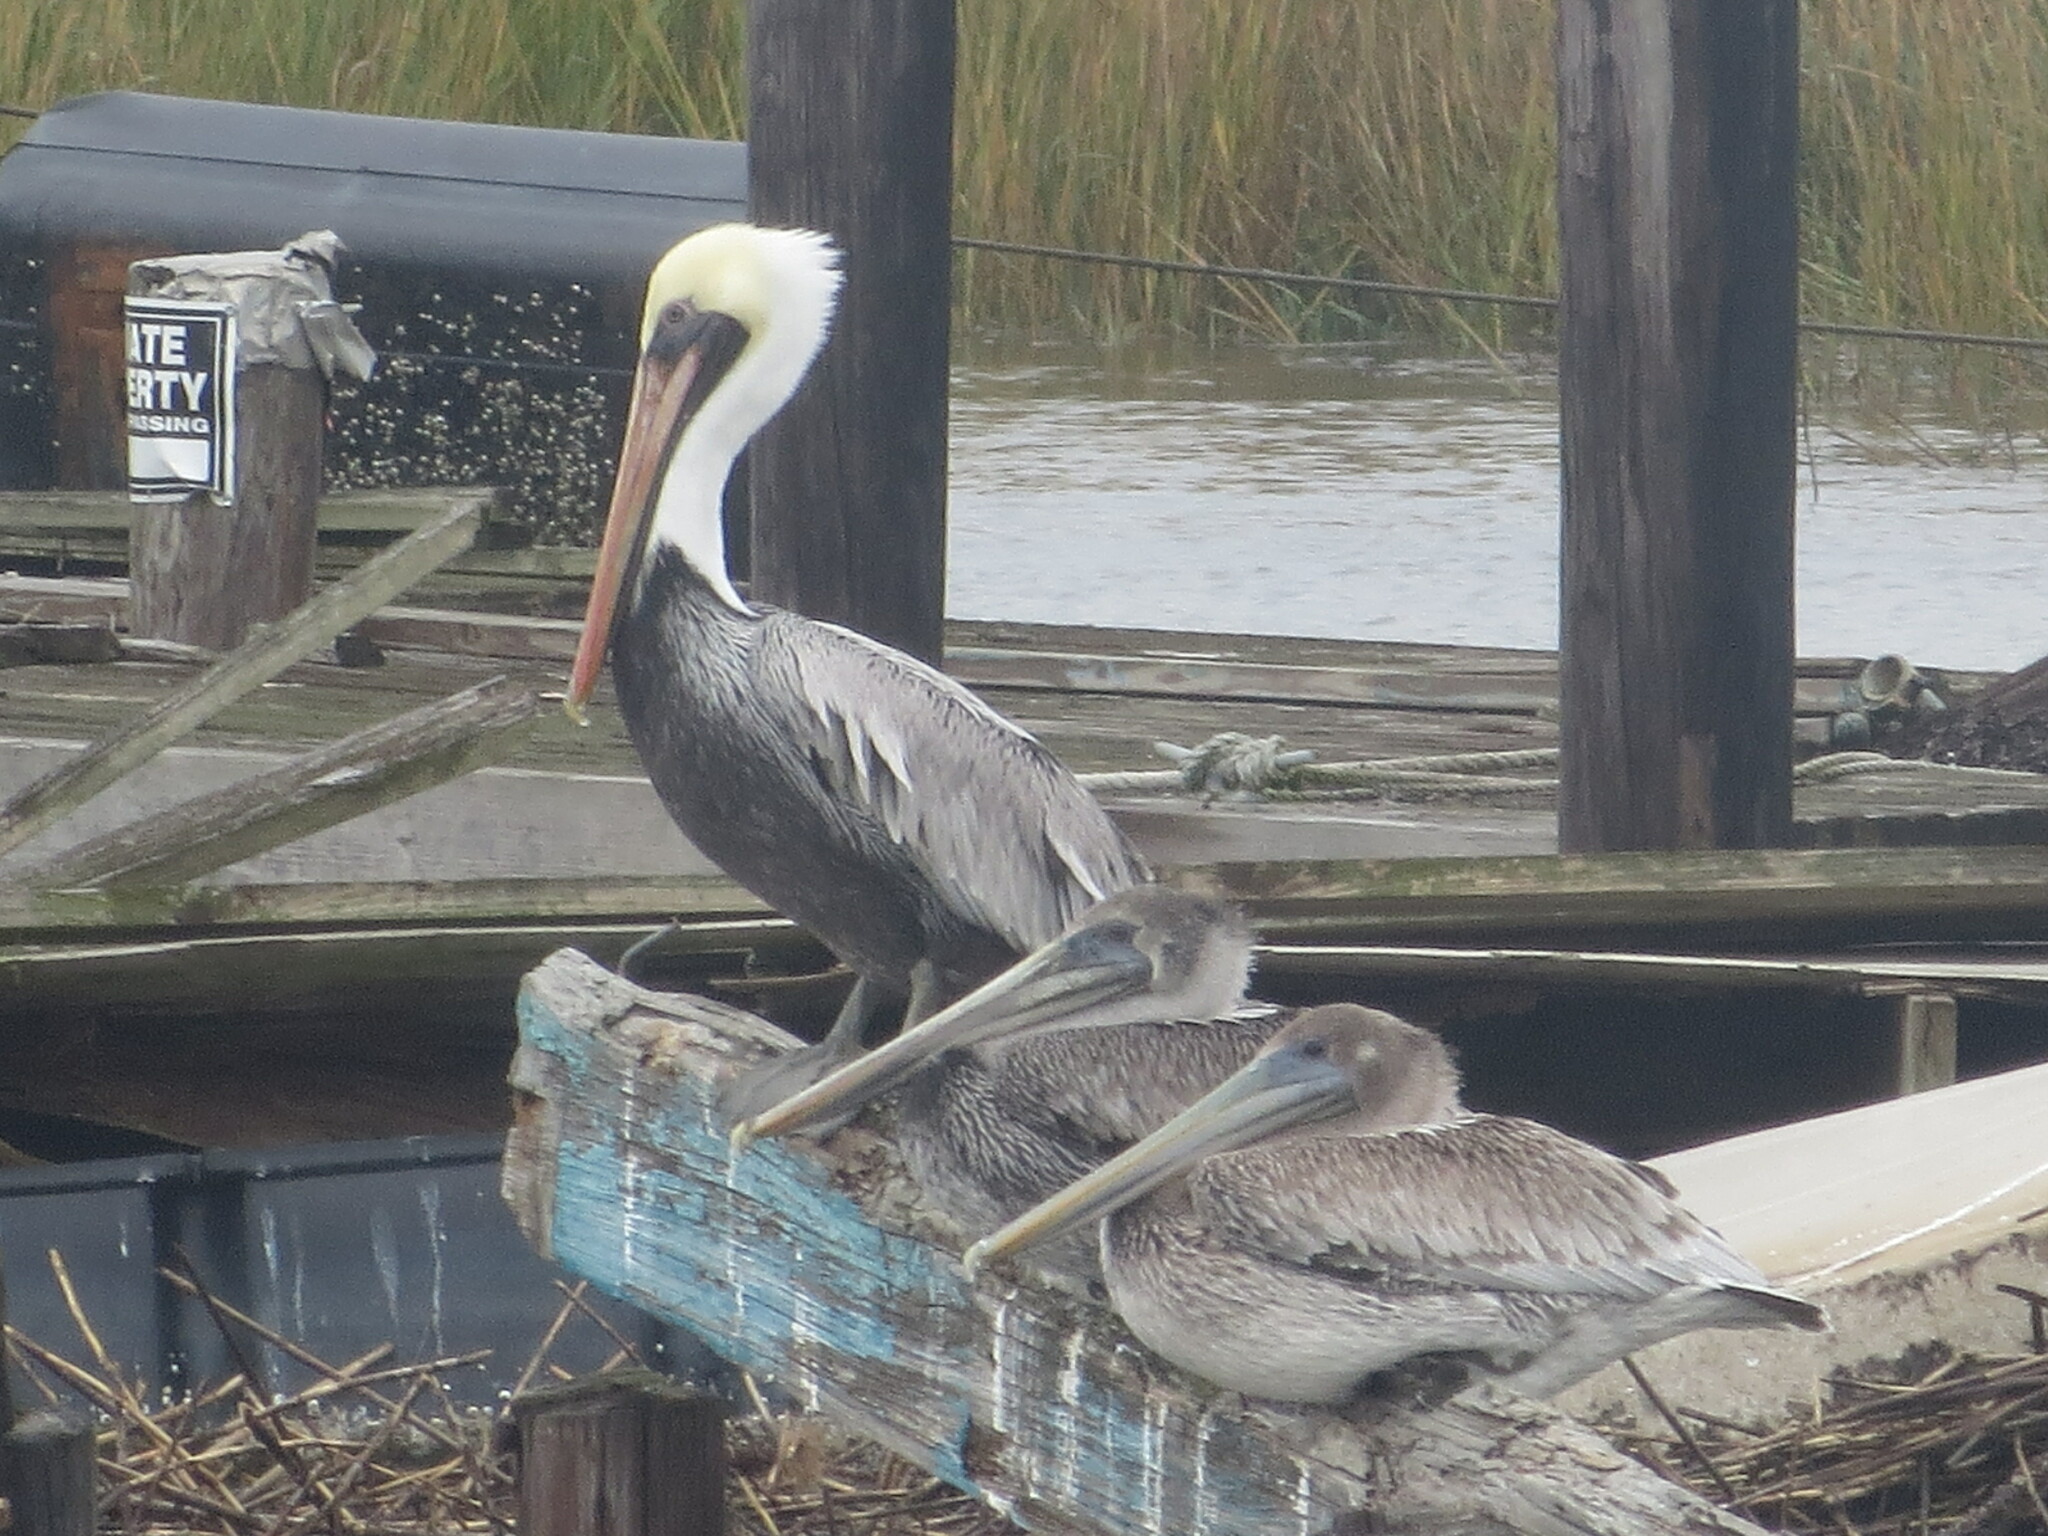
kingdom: Animalia
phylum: Chordata
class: Aves
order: Pelecaniformes
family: Pelecanidae
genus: Pelecanus
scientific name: Pelecanus occidentalis
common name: Brown pelican
